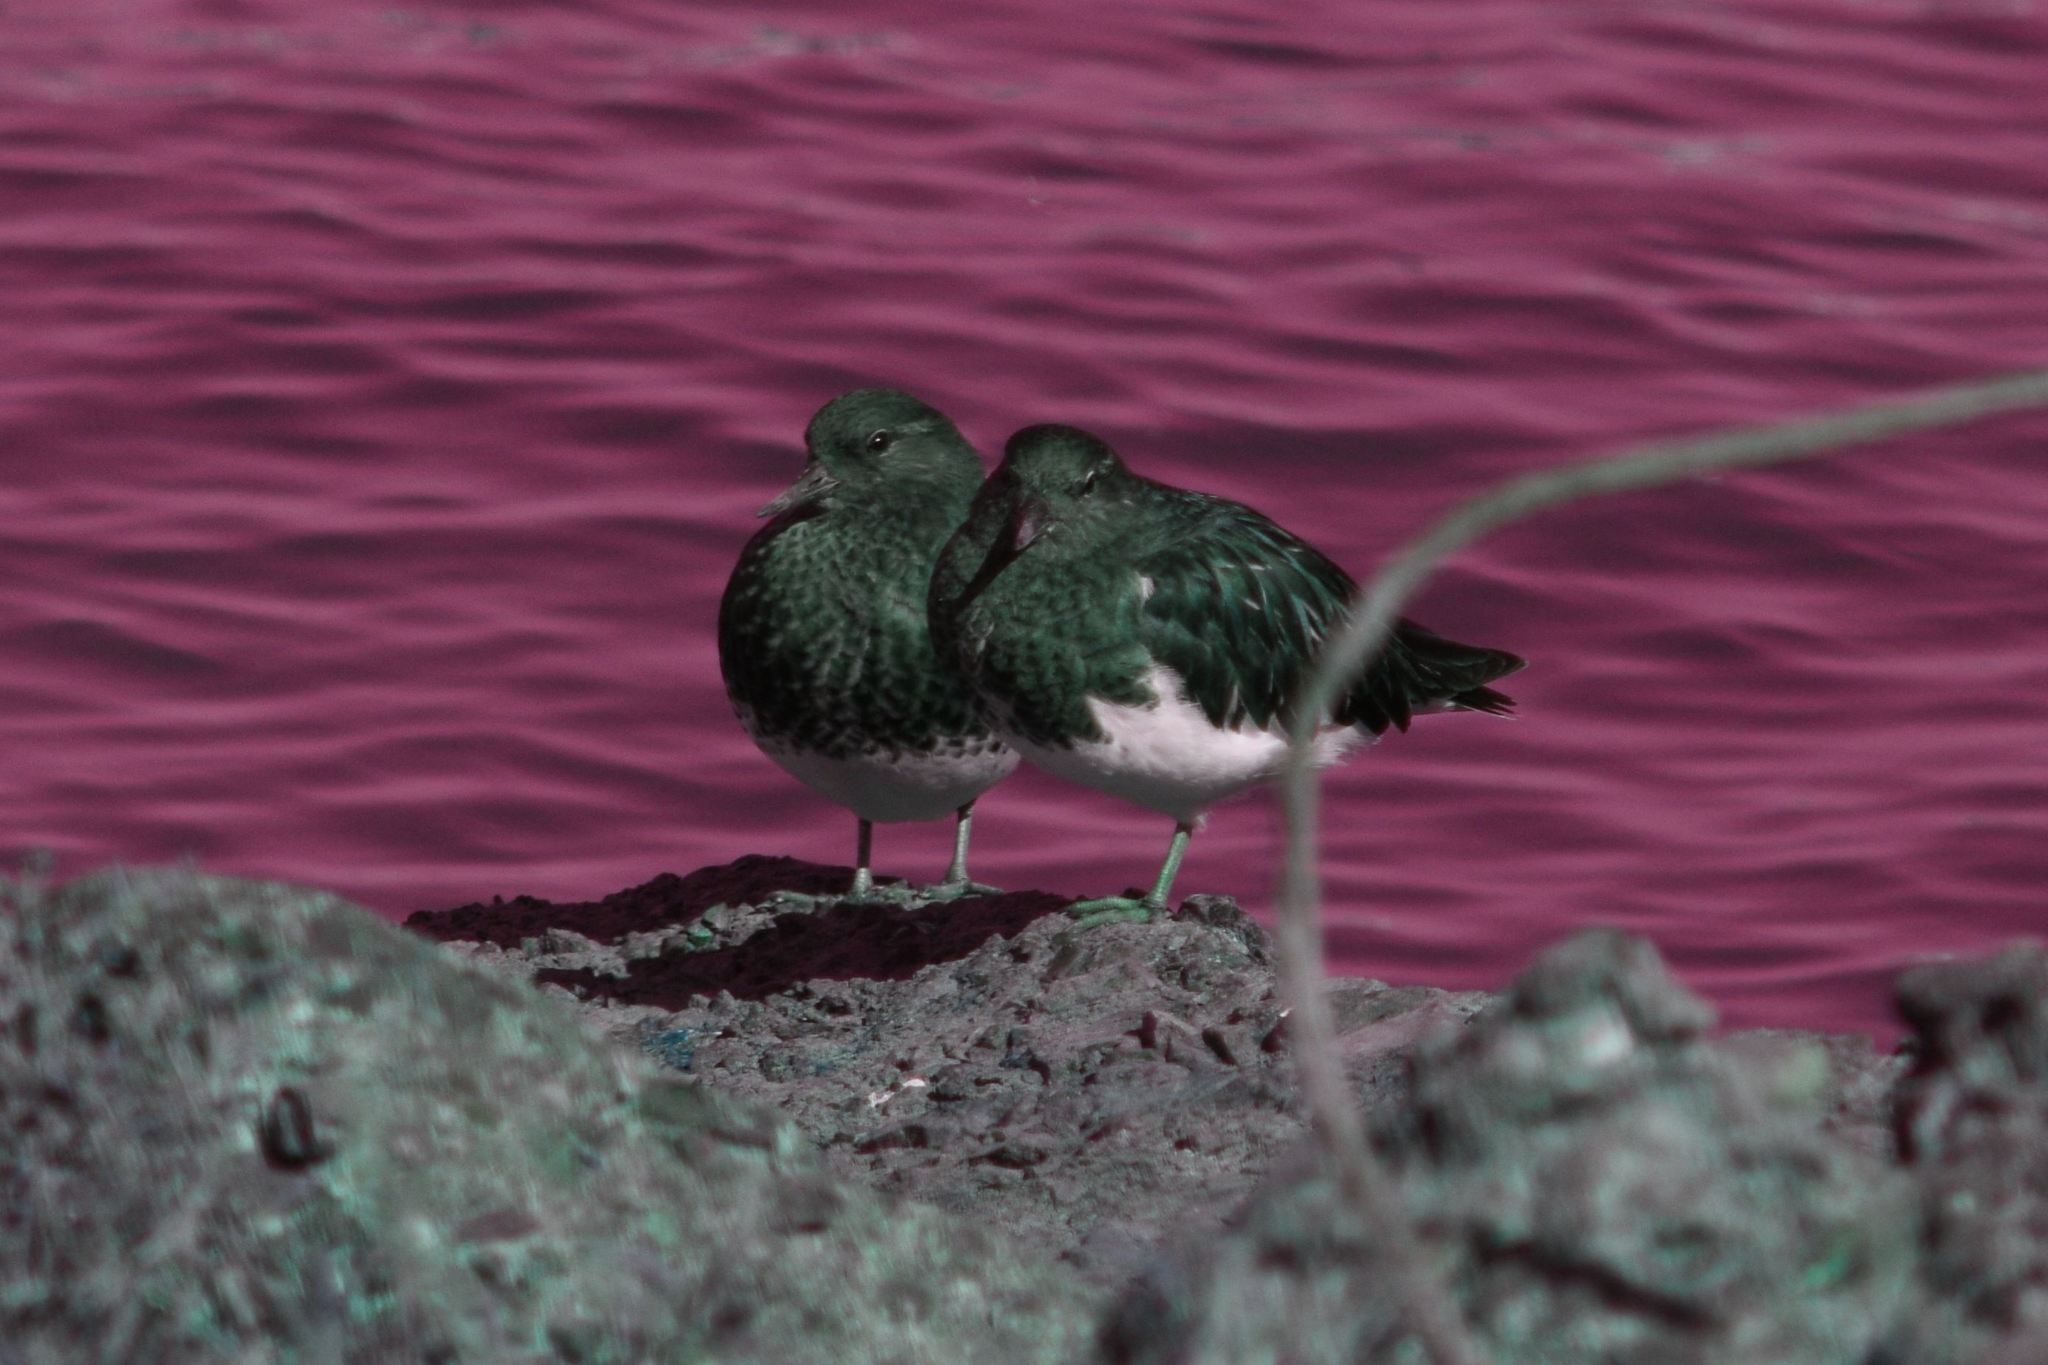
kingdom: Animalia
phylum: Chordata
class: Aves
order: Charadriiformes
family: Scolopacidae
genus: Arenaria
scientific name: Arenaria melanocephala
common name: Black turnstone
